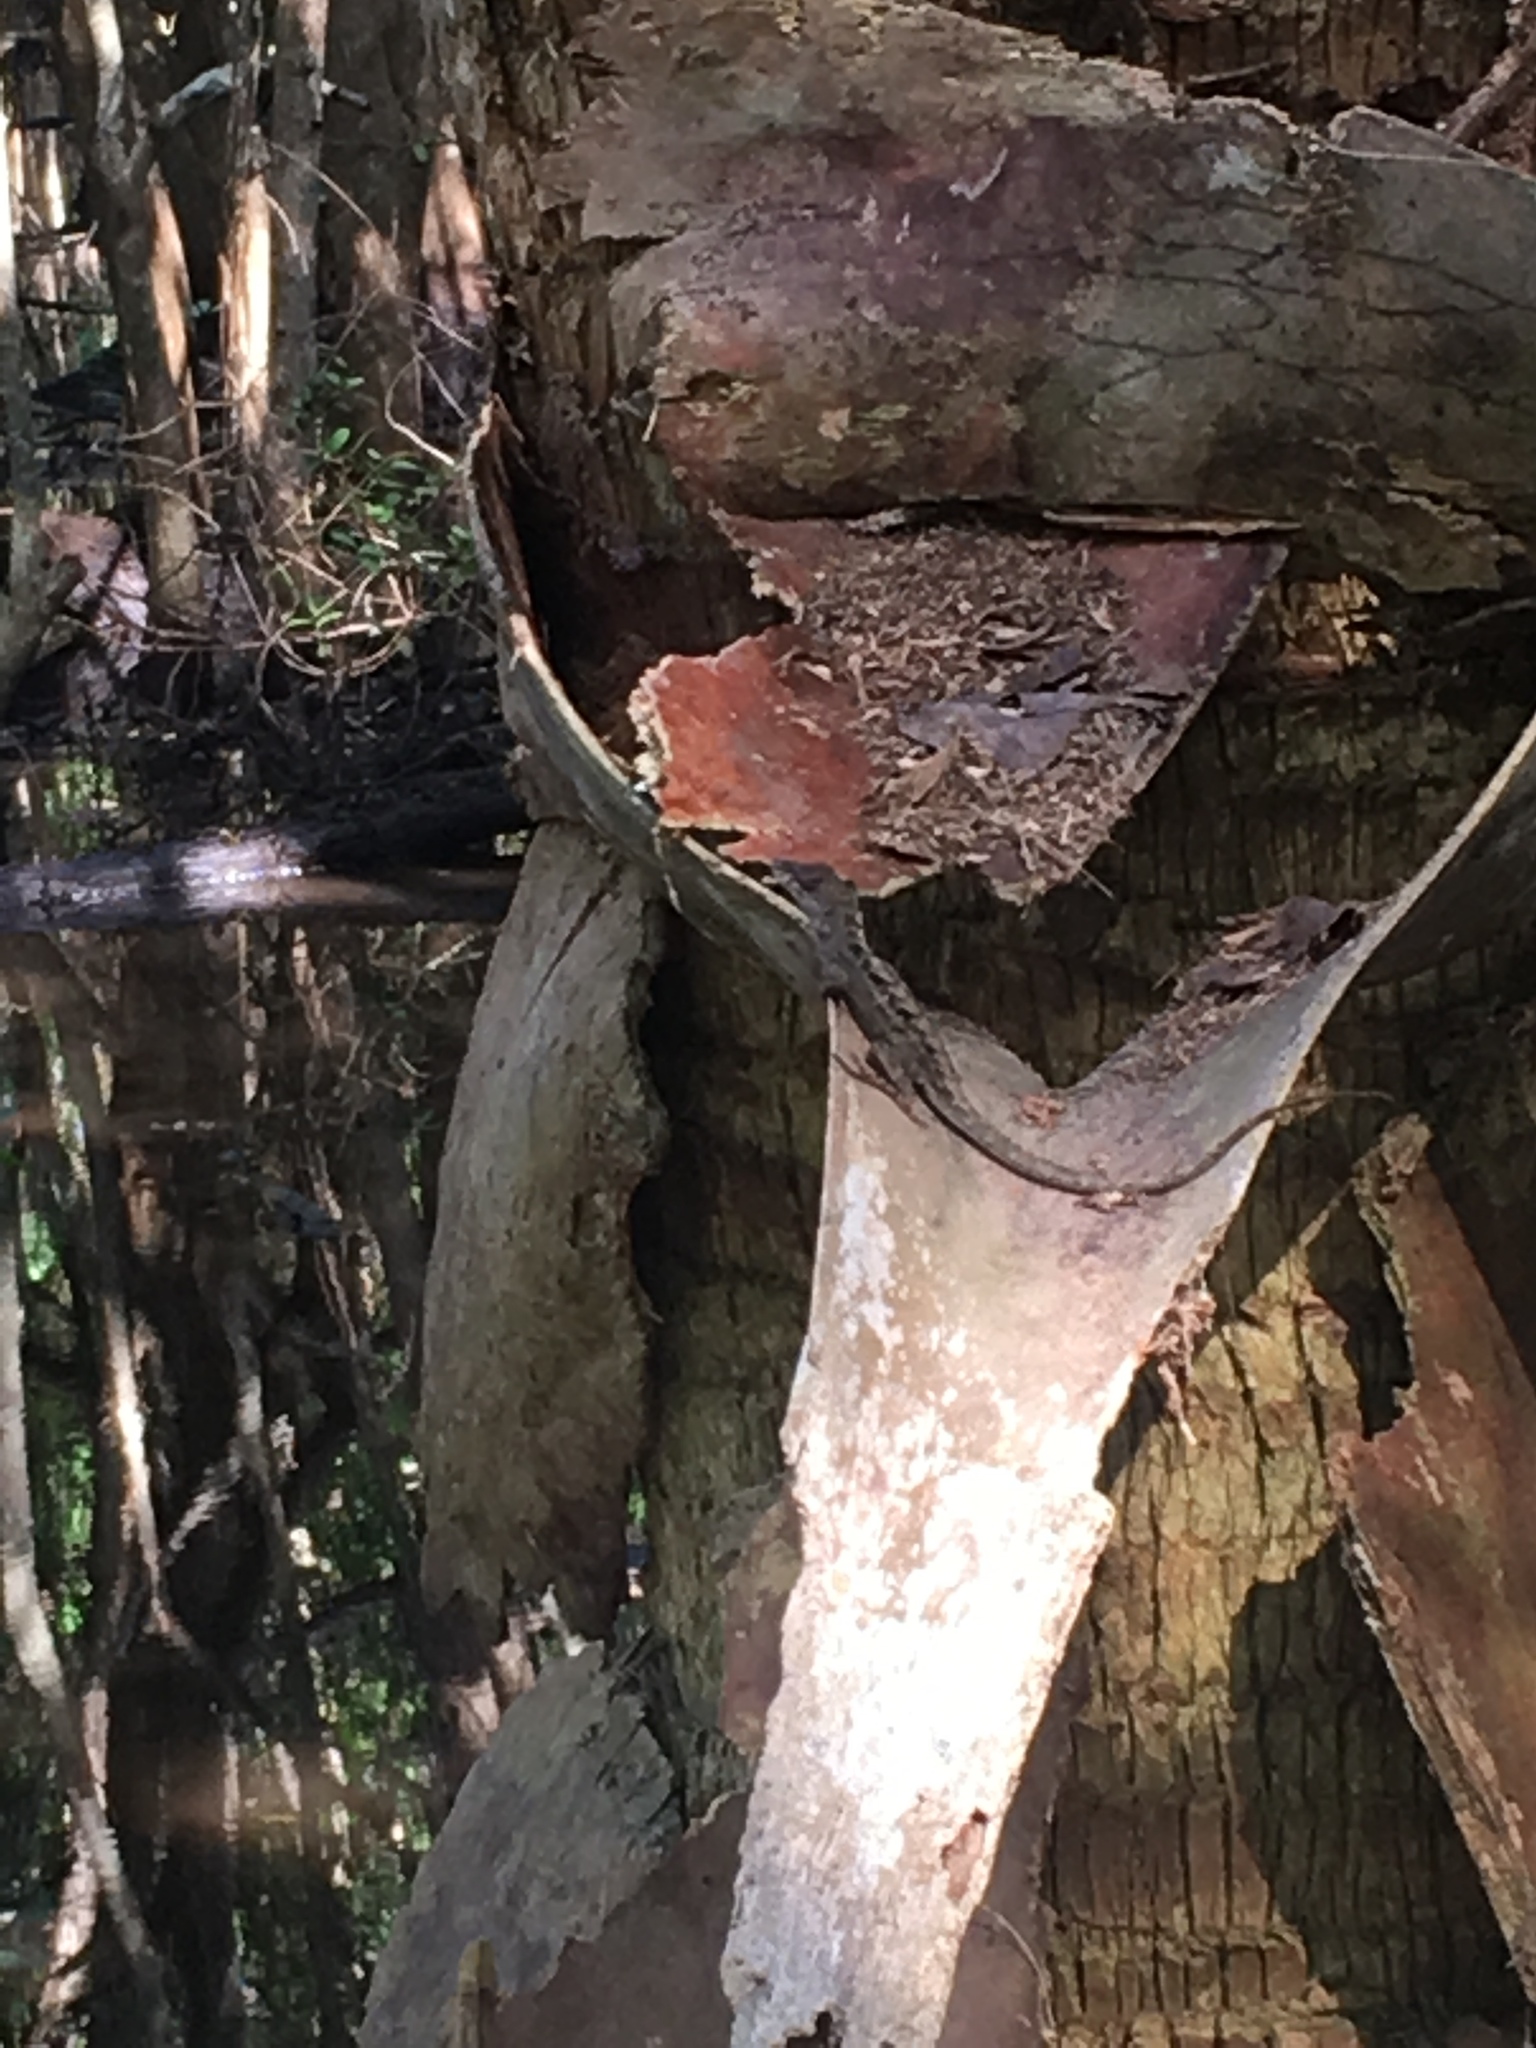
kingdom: Animalia
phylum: Chordata
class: Squamata
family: Dactyloidae
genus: Anolis
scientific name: Anolis sagrei
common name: Brown anole
